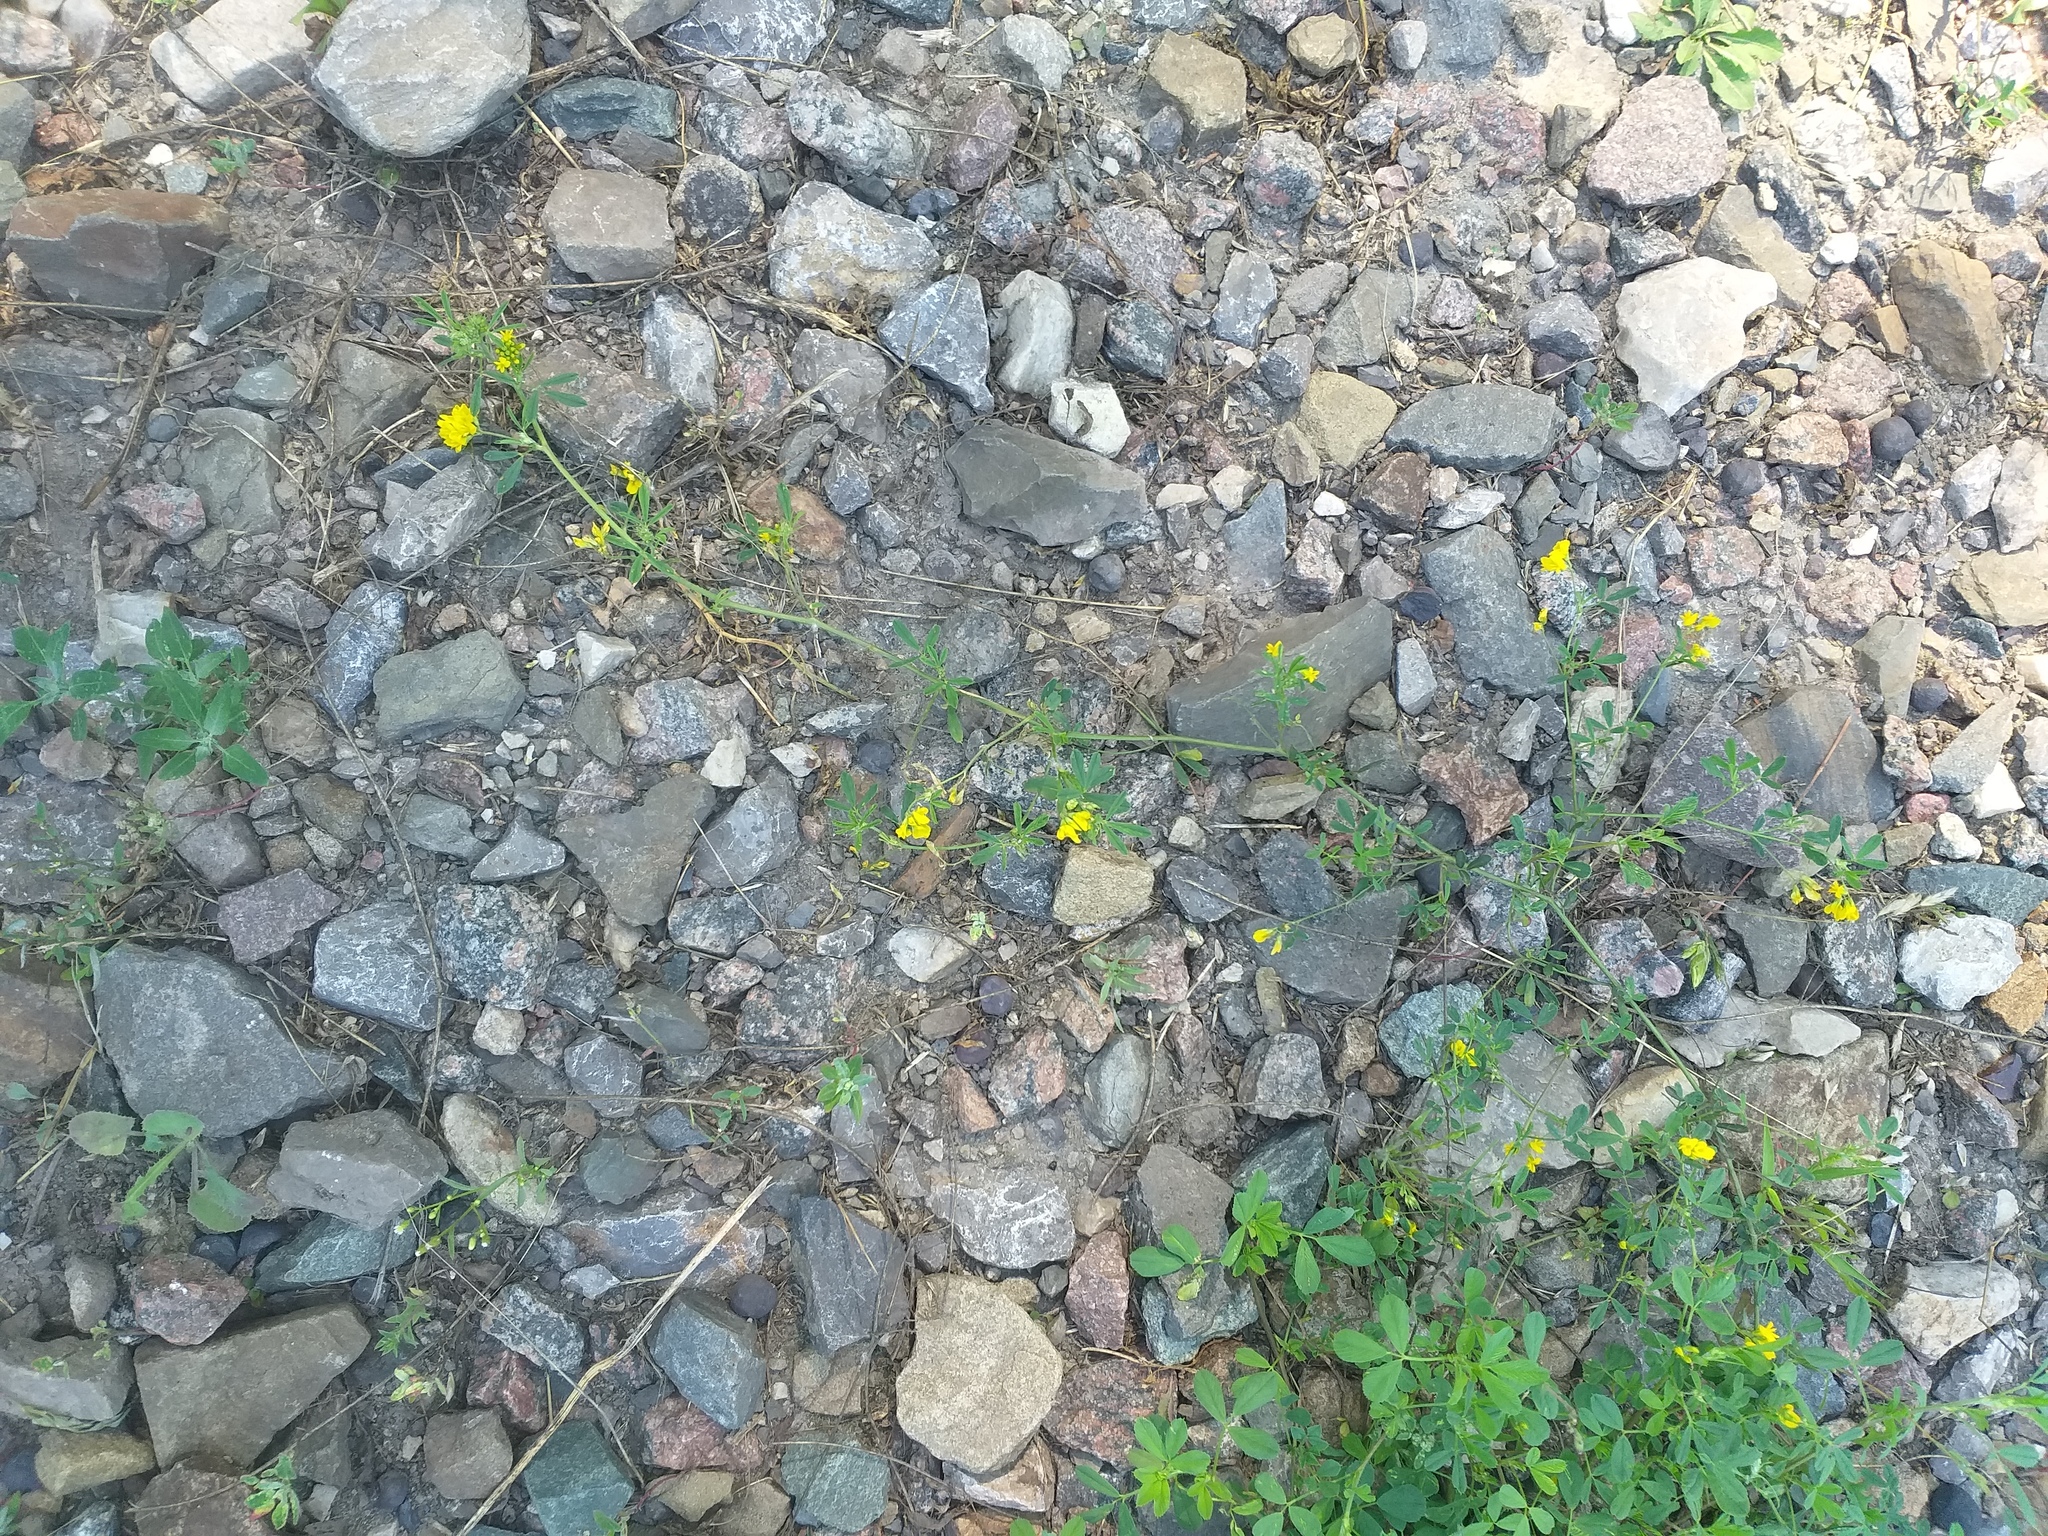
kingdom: Plantae
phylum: Tracheophyta
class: Magnoliopsida
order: Fabales
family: Fabaceae
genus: Medicago
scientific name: Medicago falcata
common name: Sickle medick
